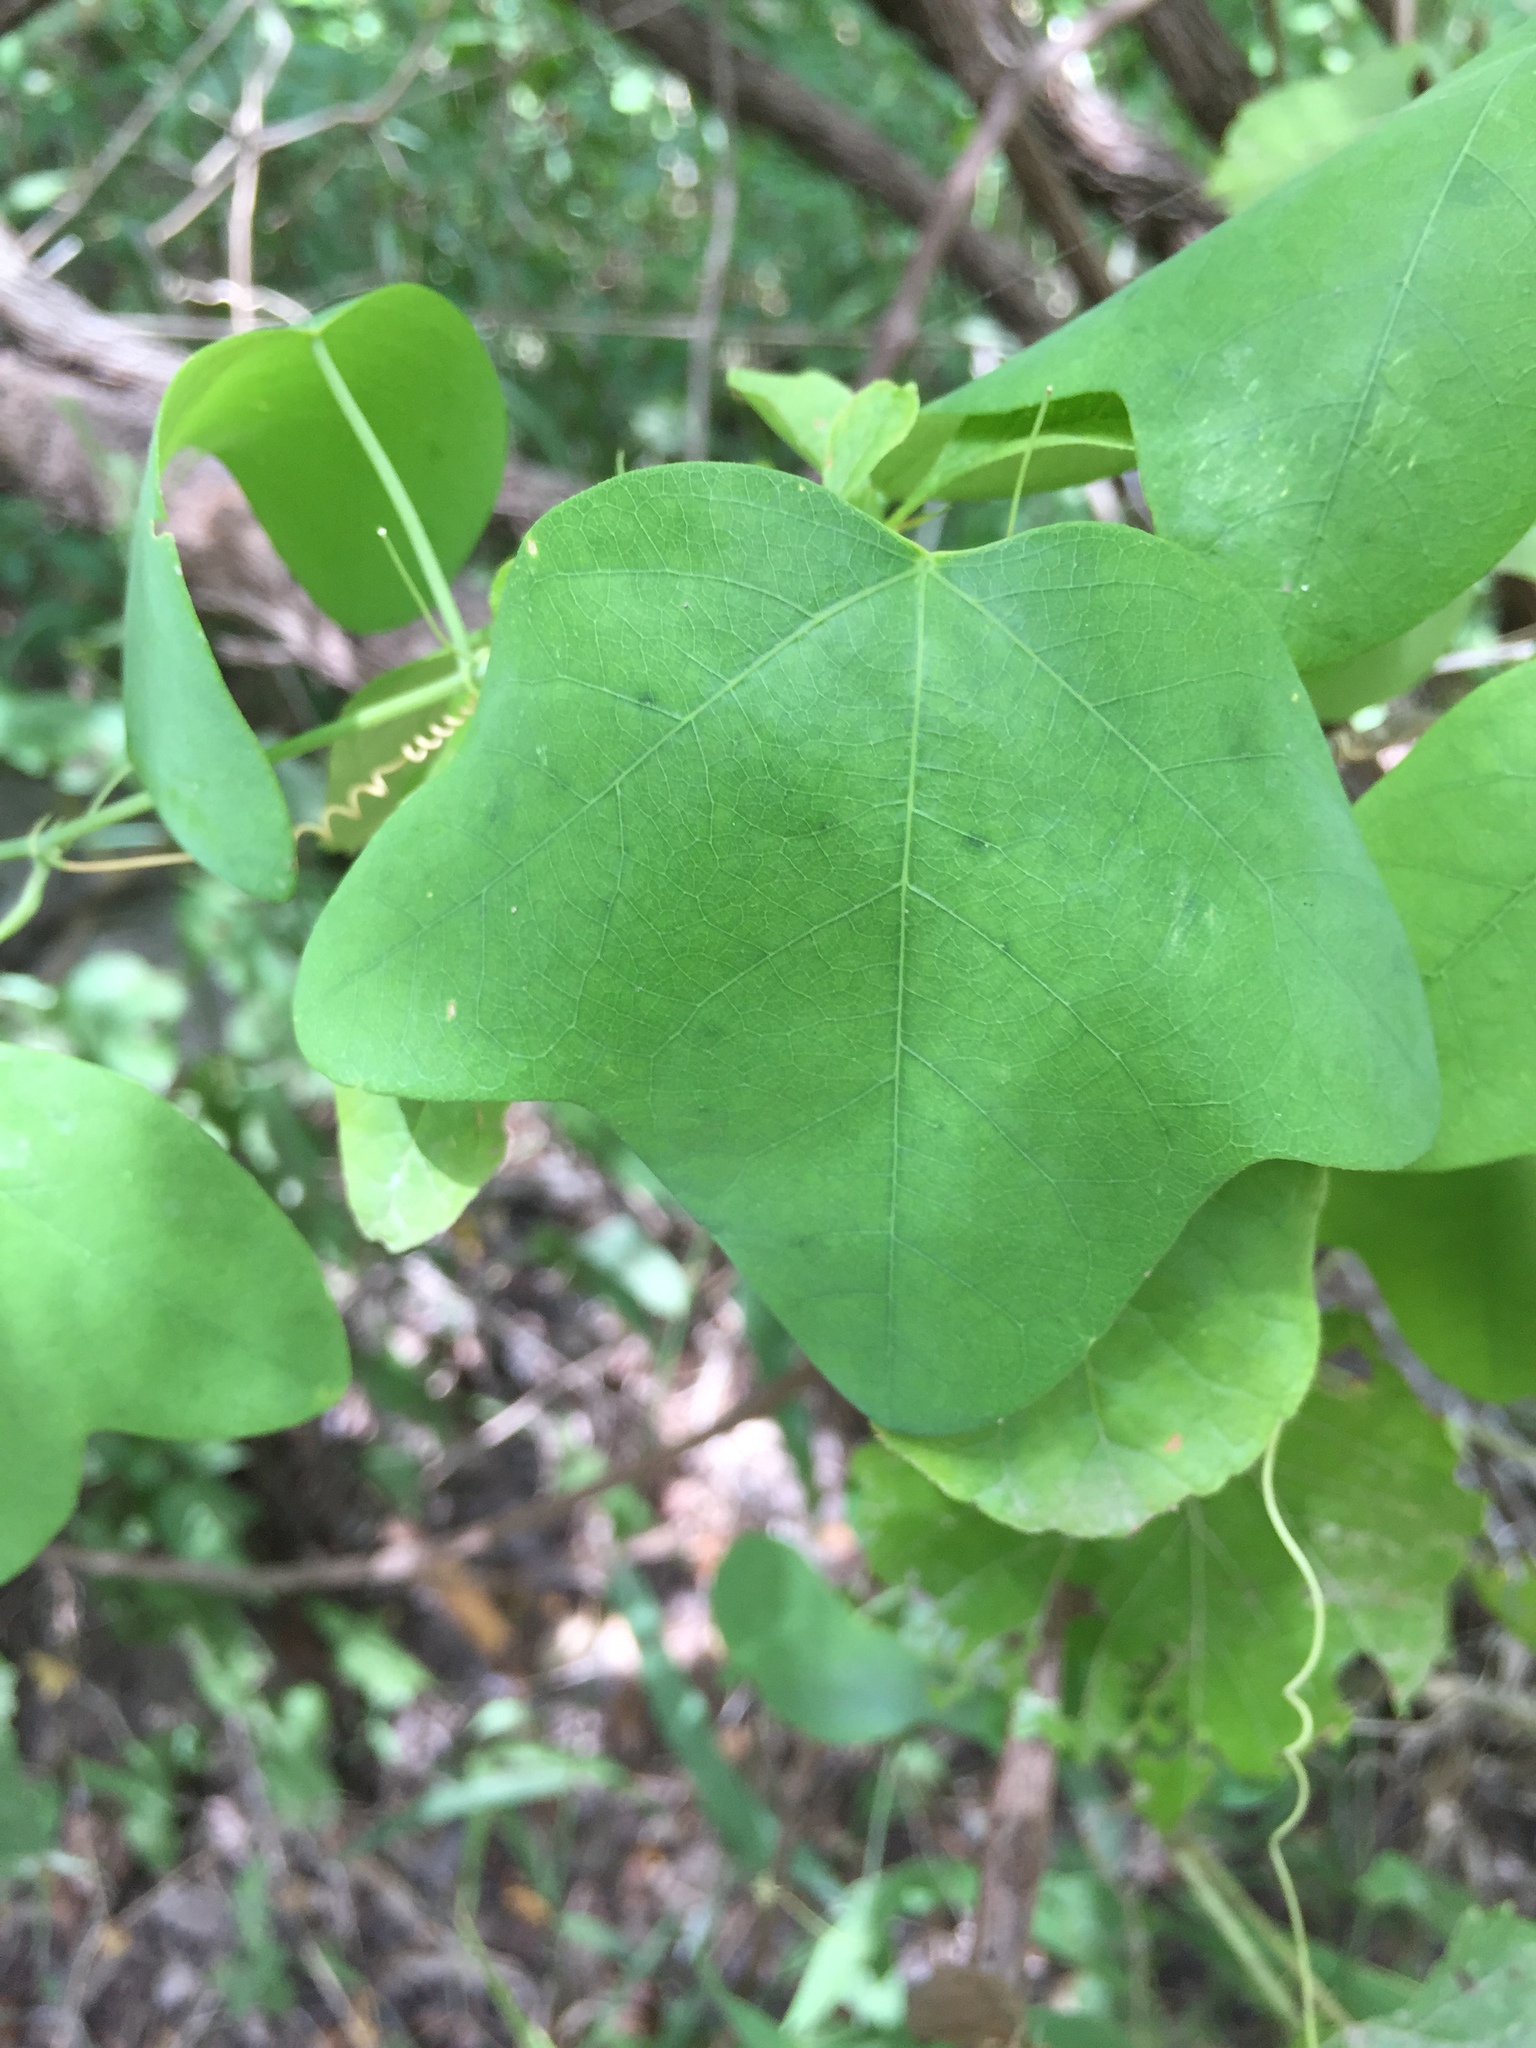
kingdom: Plantae
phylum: Tracheophyta
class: Magnoliopsida
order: Malpighiales
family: Passifloraceae
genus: Passiflora
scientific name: Passiflora lutea
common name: Yellow passionflower
